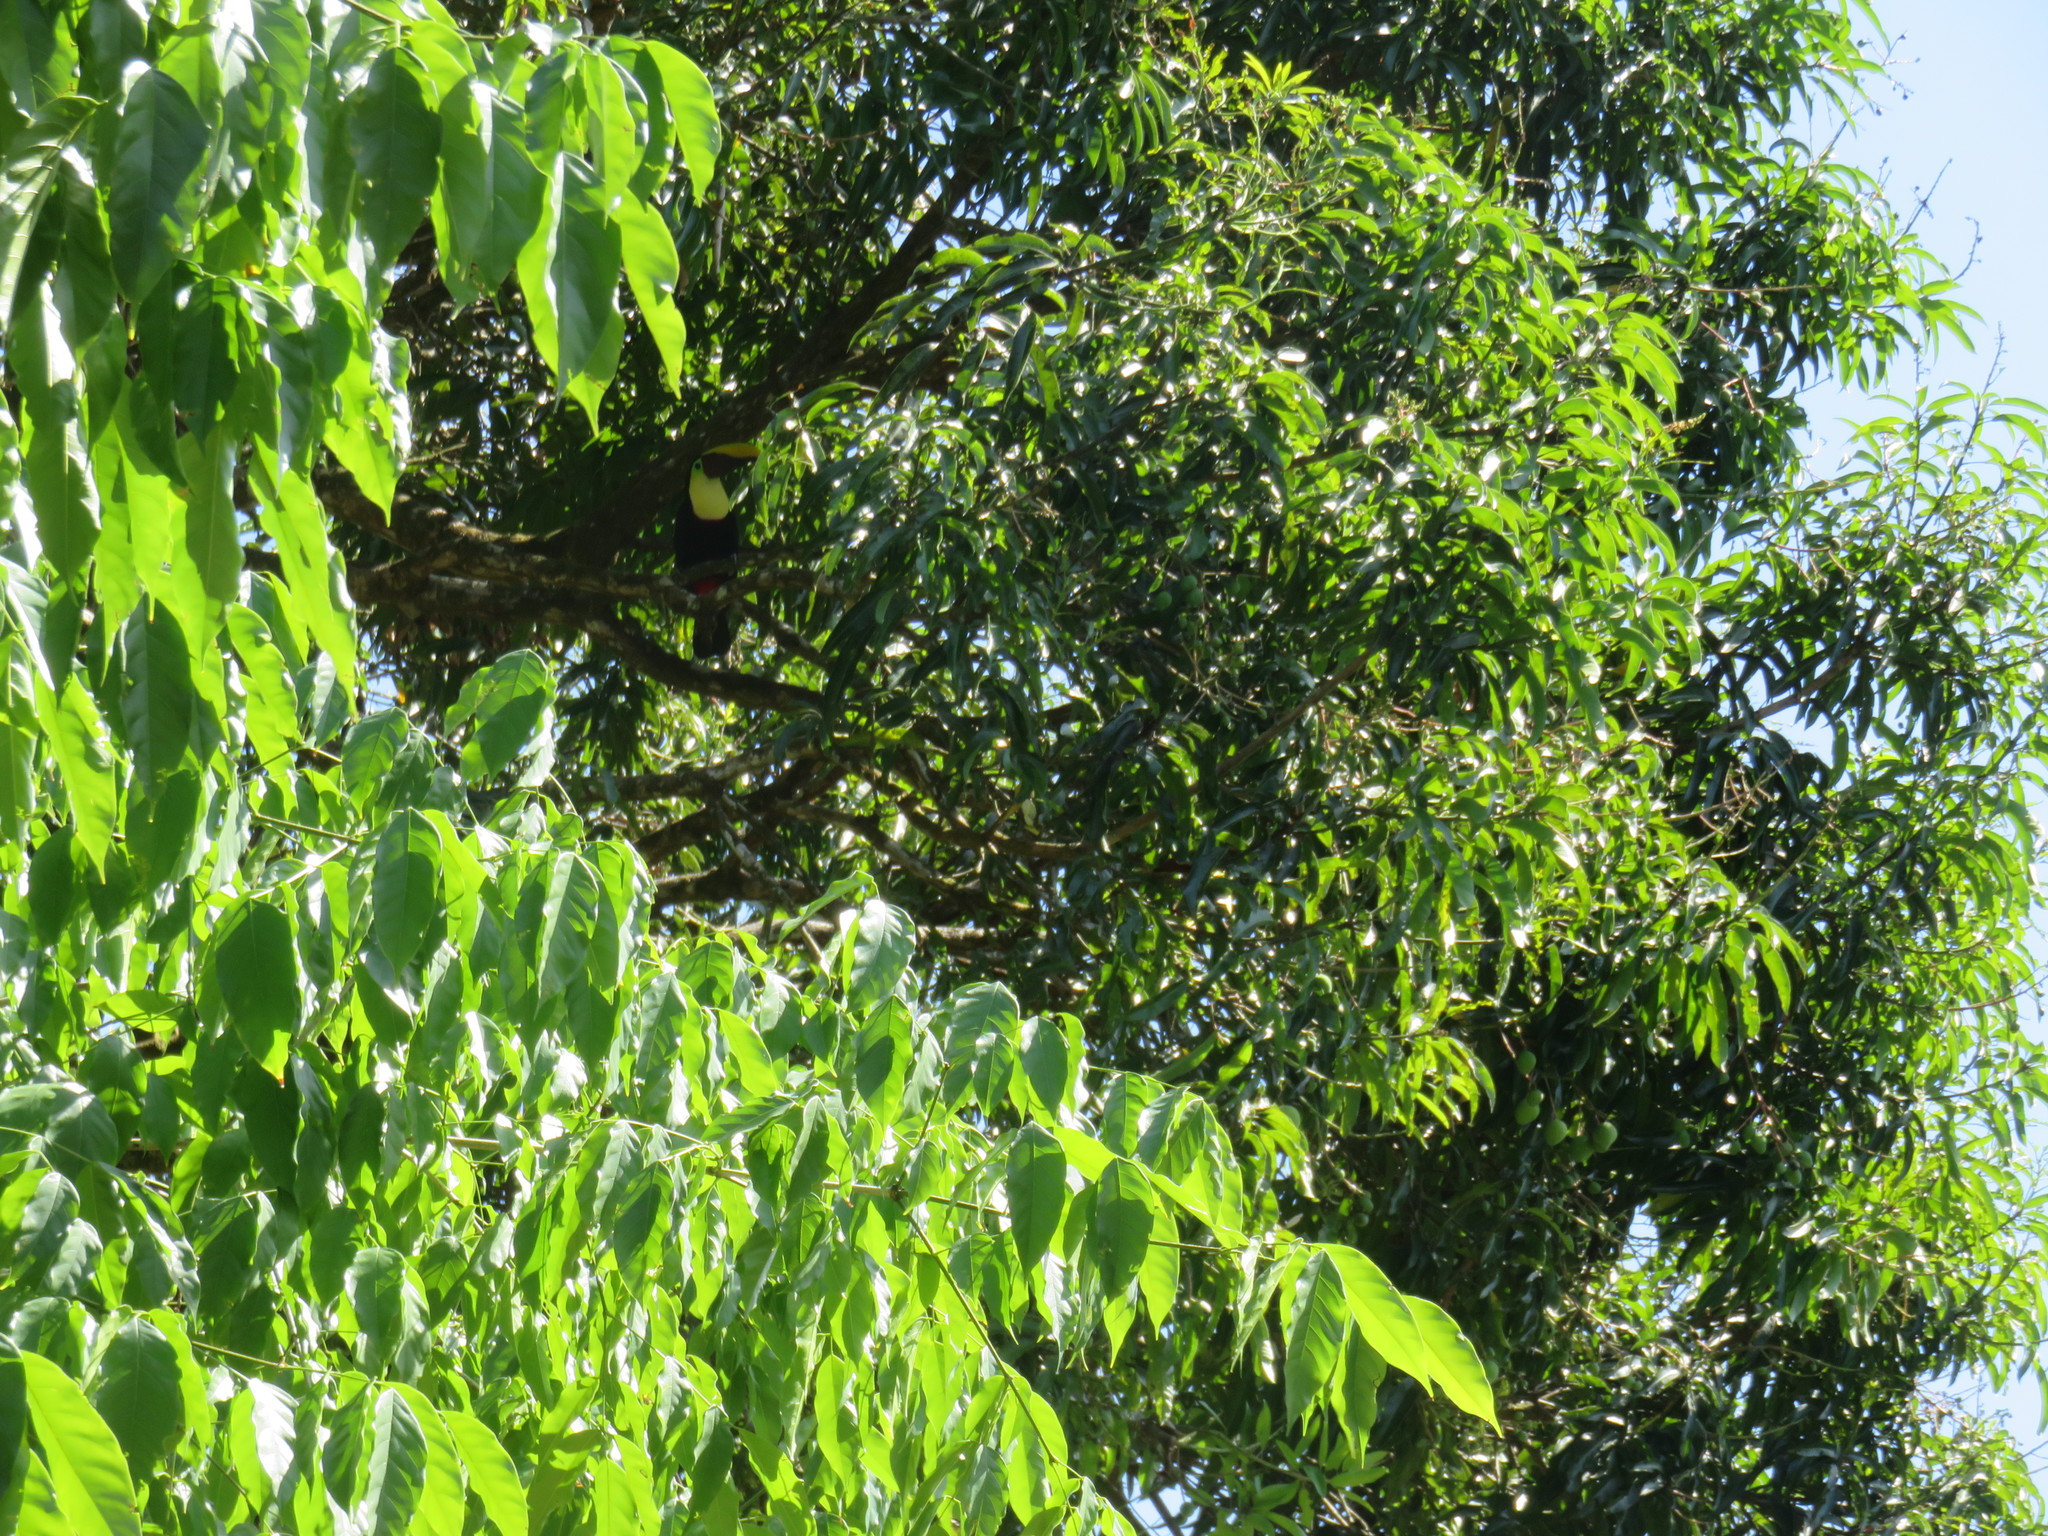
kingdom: Animalia
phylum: Chordata
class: Aves
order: Piciformes
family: Ramphastidae
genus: Ramphastos
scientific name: Ramphastos ambiguus
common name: Yellow-throated toucan
